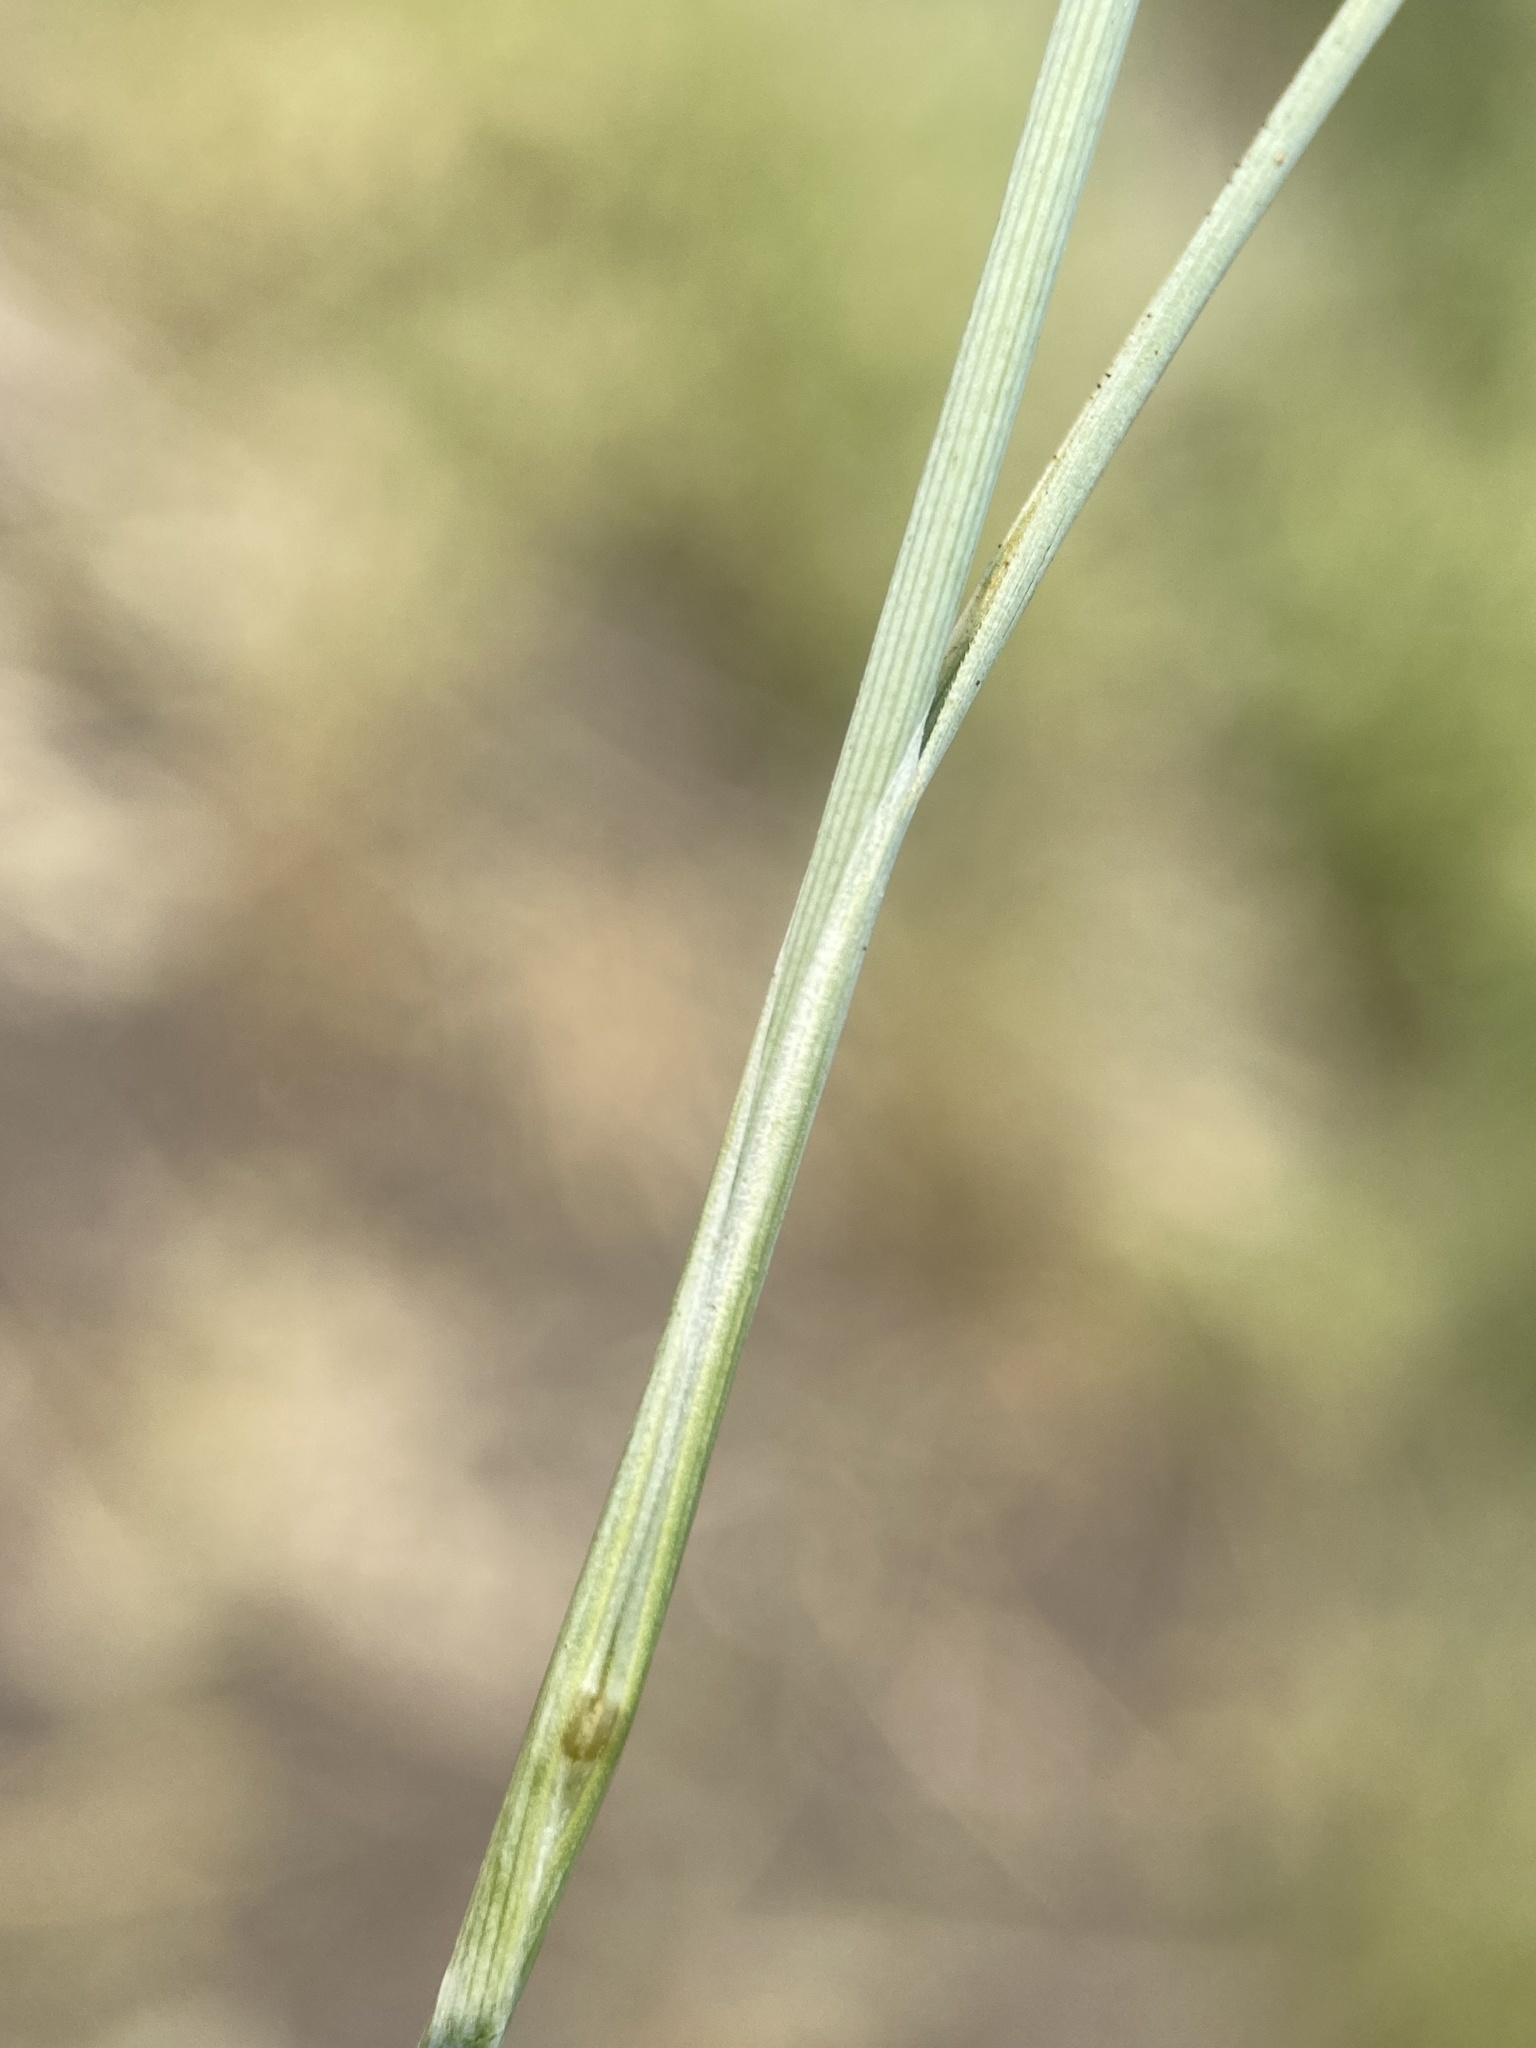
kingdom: Plantae
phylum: Tracheophyta
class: Liliopsida
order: Poales
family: Poaceae
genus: Puccinellia
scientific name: Puccinellia nuttalliana
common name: Nuttall's alkali grass
